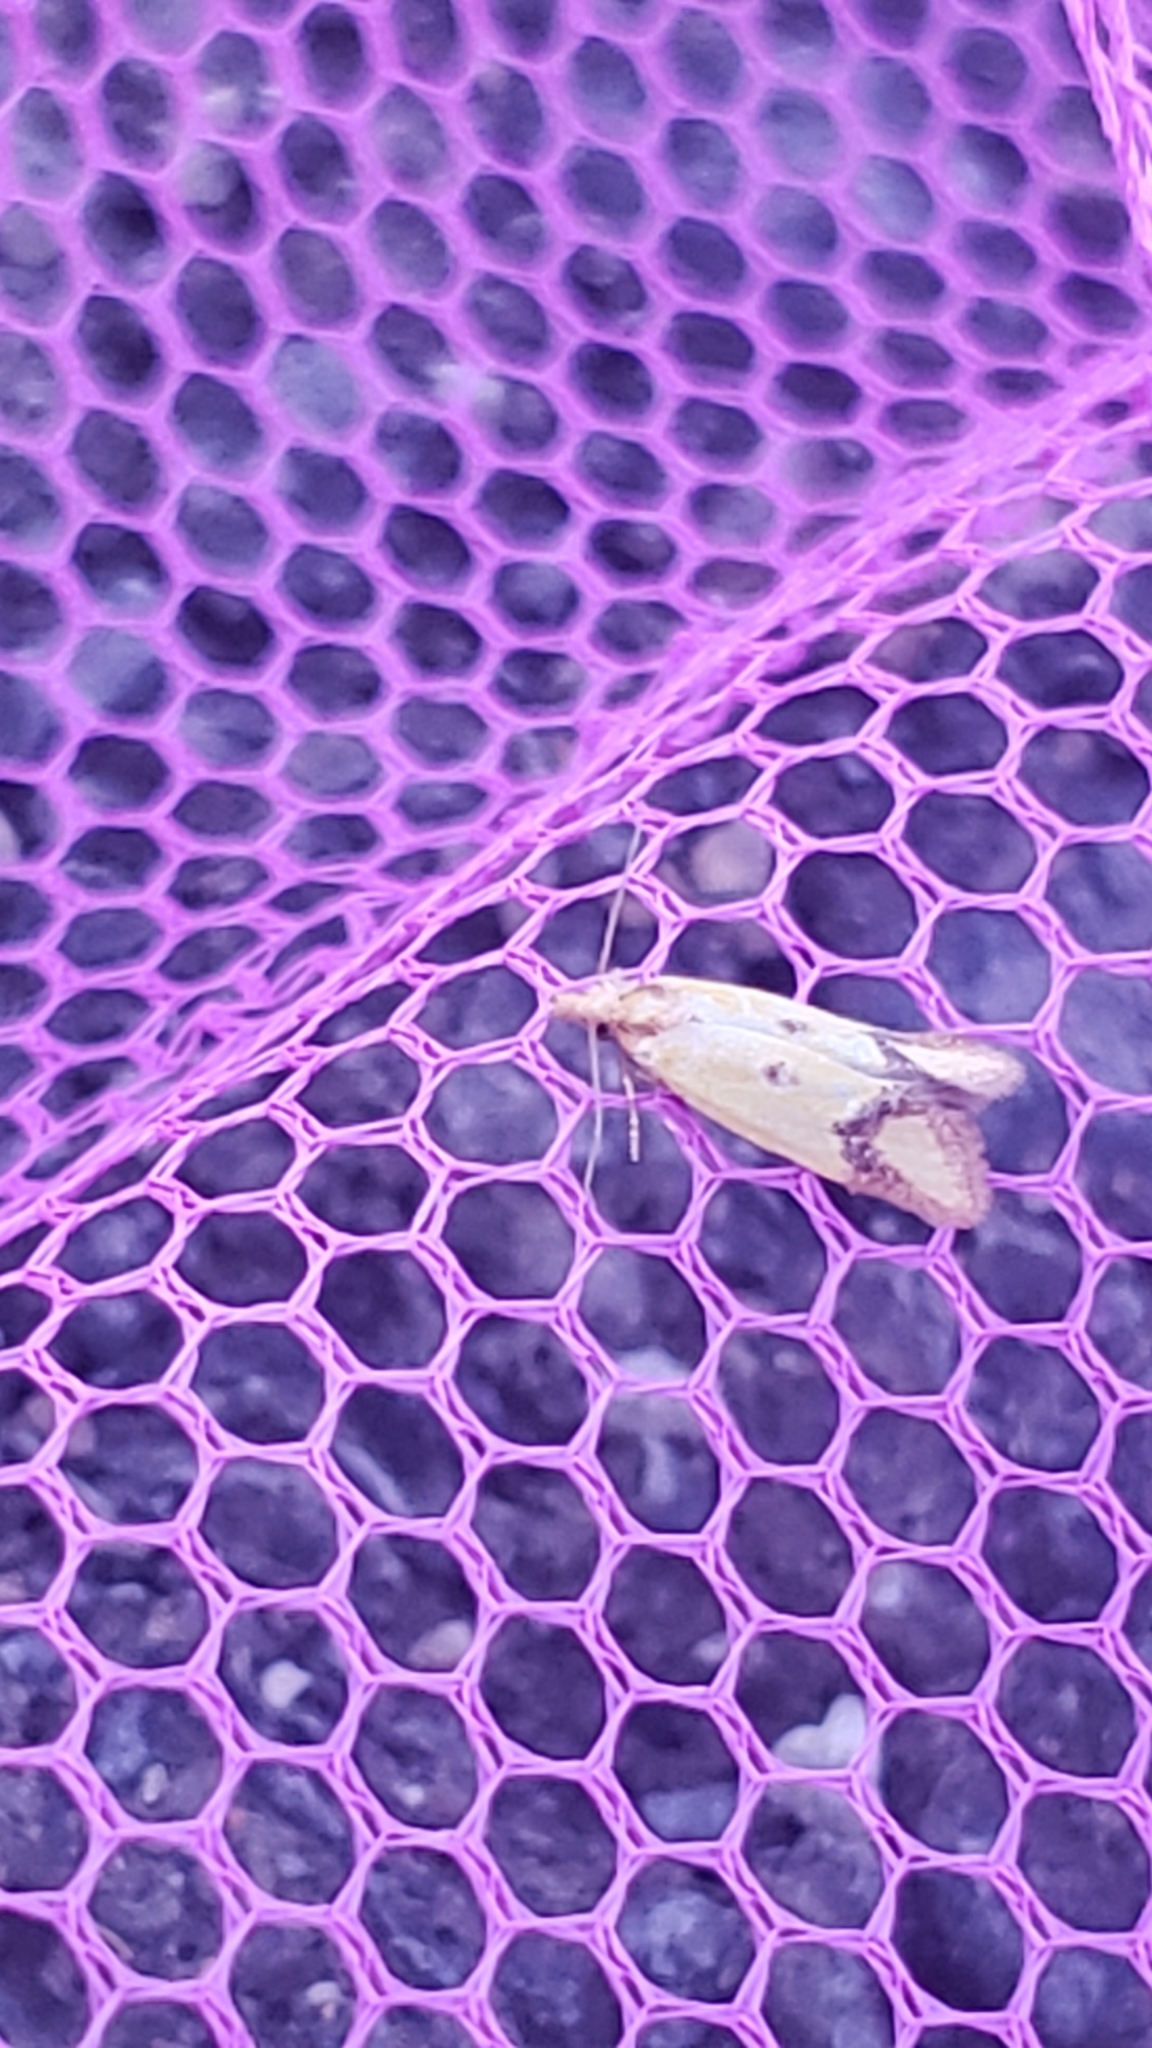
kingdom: Animalia
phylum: Arthropoda
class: Insecta
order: Lepidoptera
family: Tortricidae
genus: Agapeta
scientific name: Agapeta zoegana
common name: Sulfur knapweed root moth
